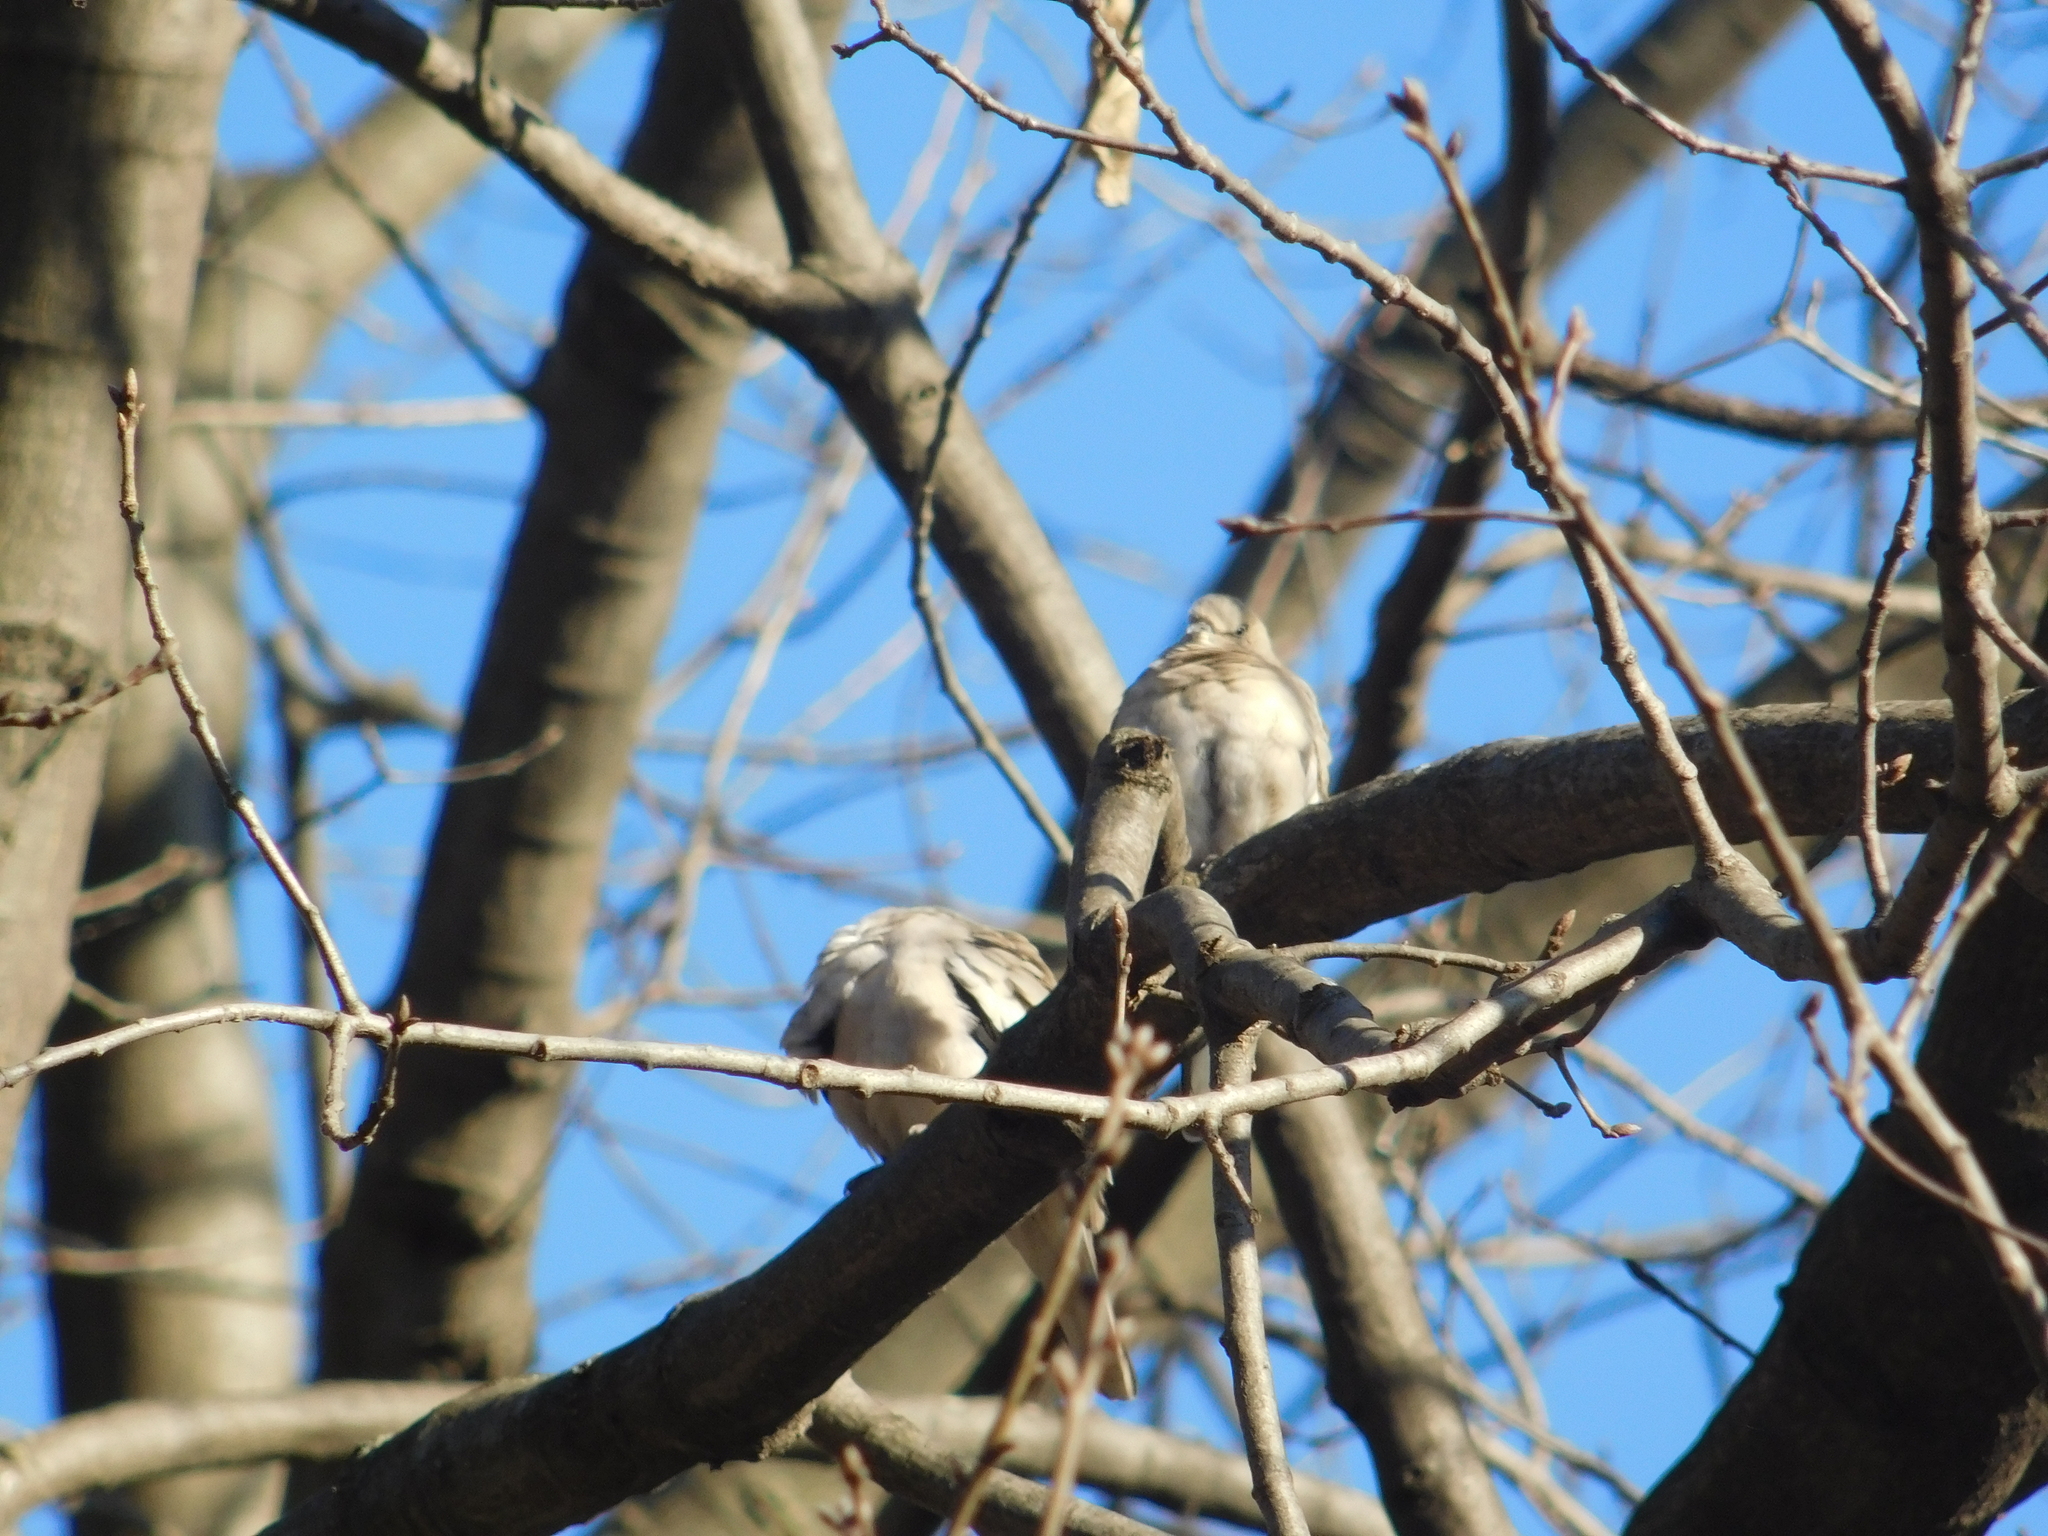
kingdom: Animalia
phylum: Chordata
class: Aves
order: Columbiformes
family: Columbidae
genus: Columbina
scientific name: Columbina picui
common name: Picui ground dove
